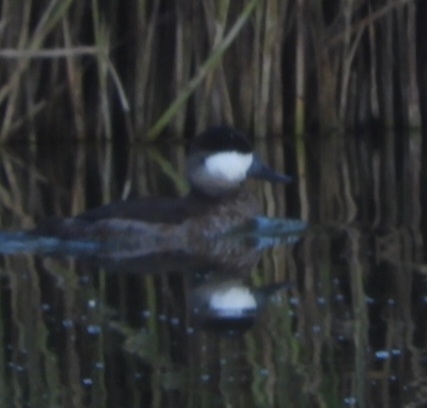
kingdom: Animalia
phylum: Chordata
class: Aves
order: Anseriformes
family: Anatidae
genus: Oxyura
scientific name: Oxyura jamaicensis
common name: Ruddy duck
